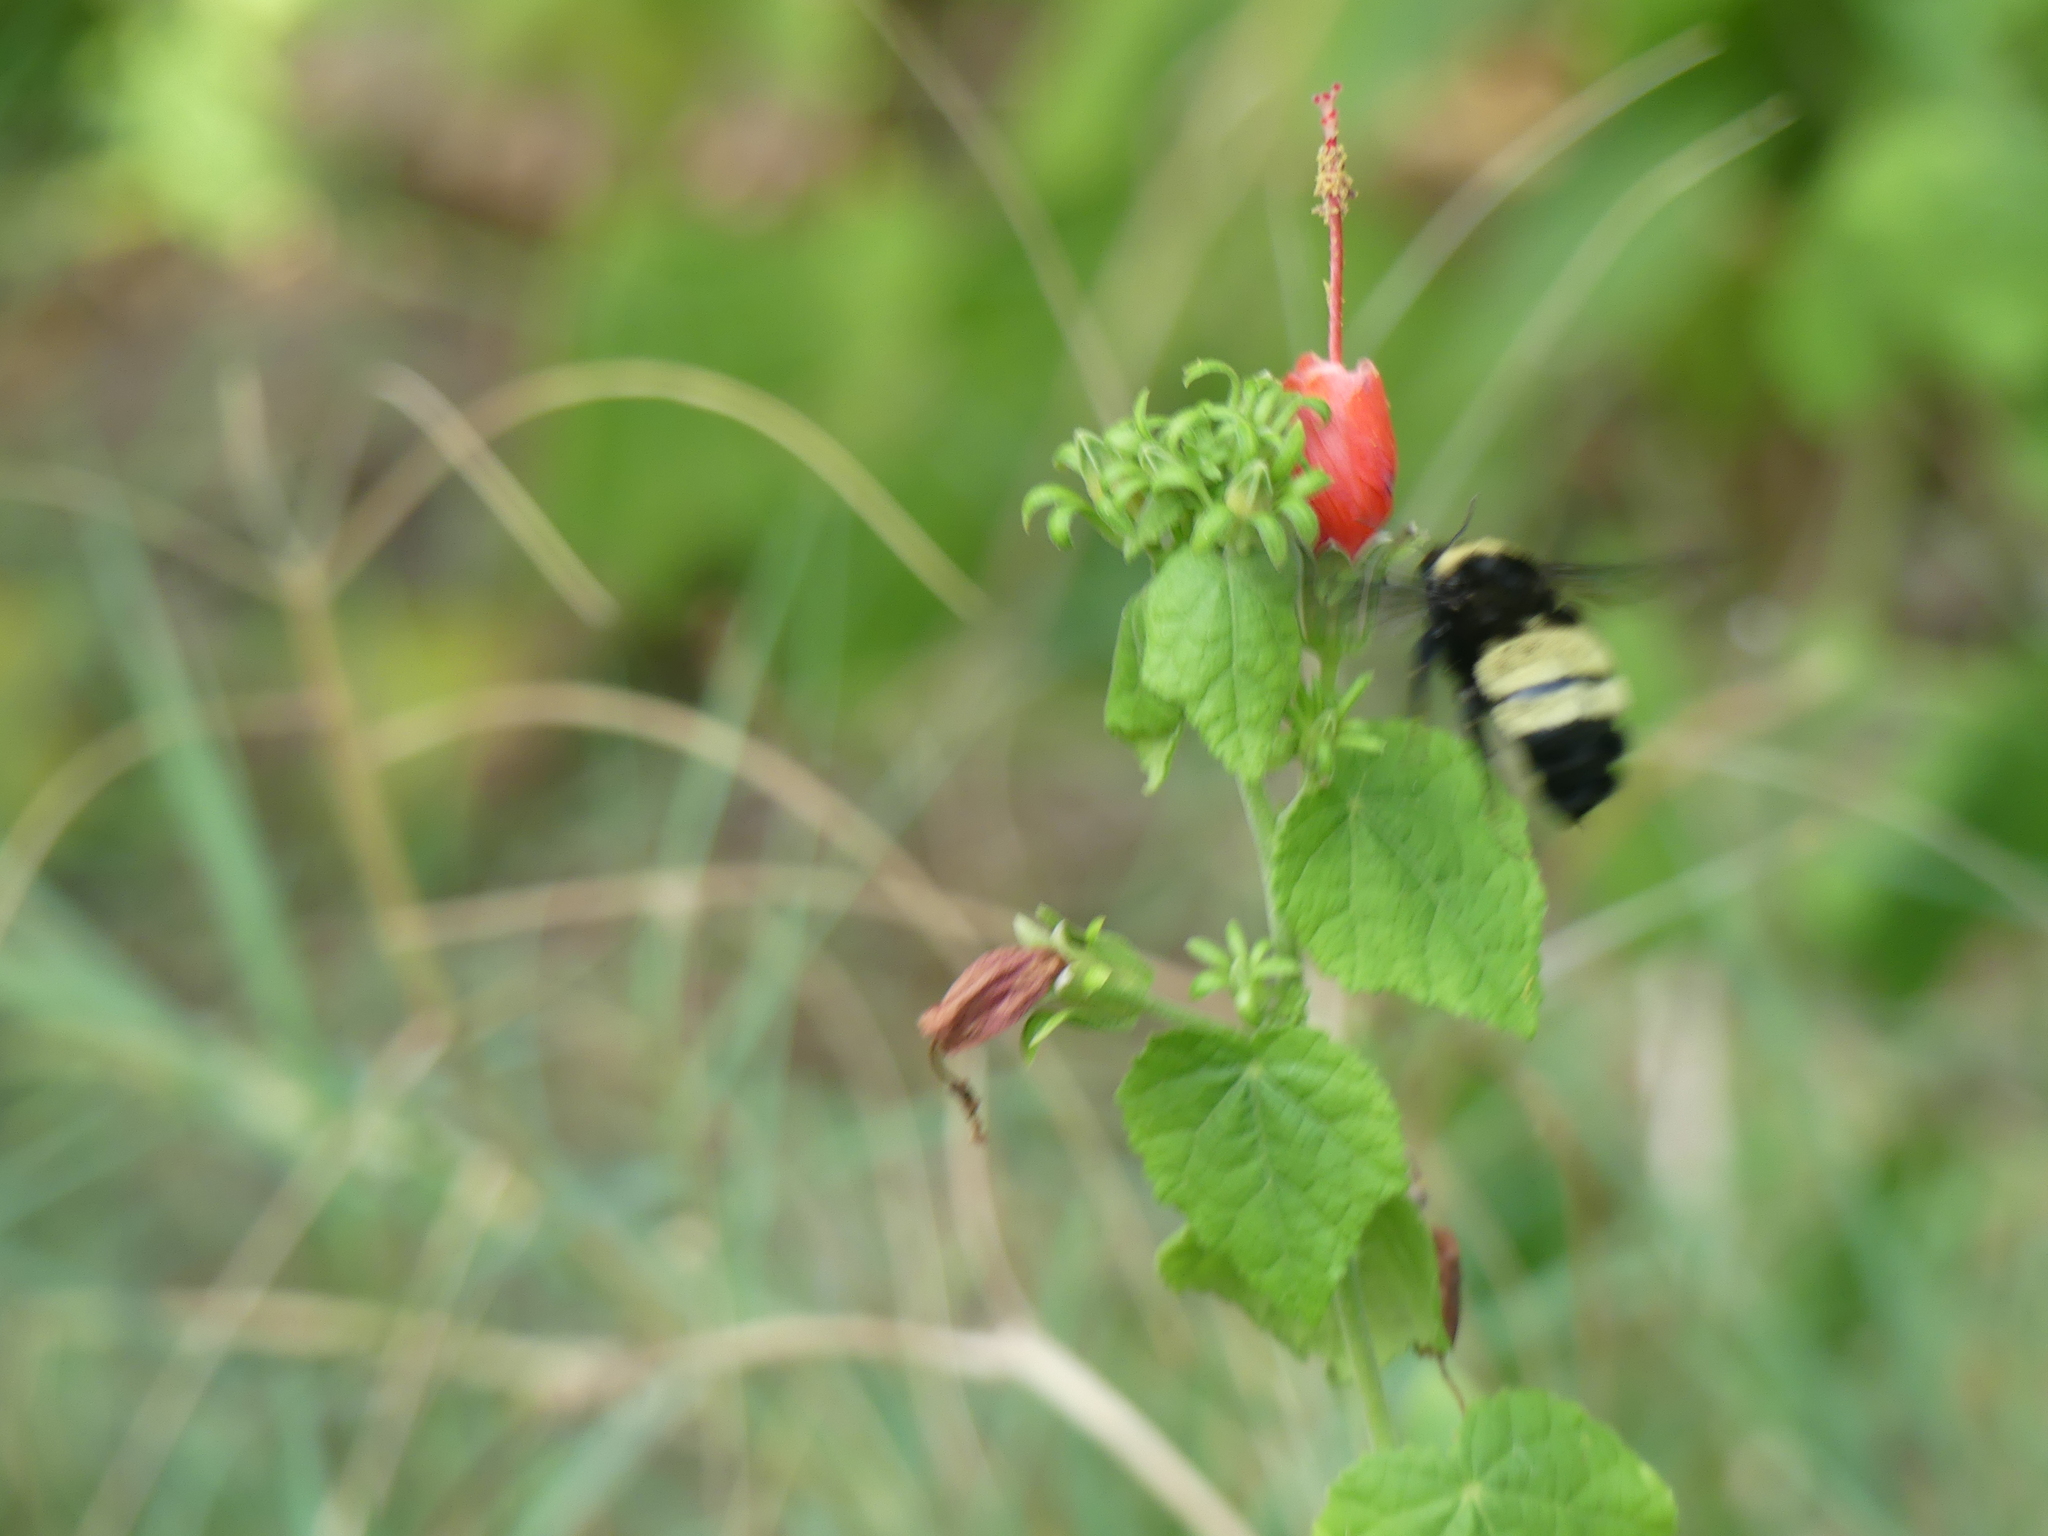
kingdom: Animalia
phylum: Arthropoda
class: Insecta
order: Hymenoptera
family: Apidae
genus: Bombus
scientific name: Bombus pensylvanicus
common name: Bumble bee
